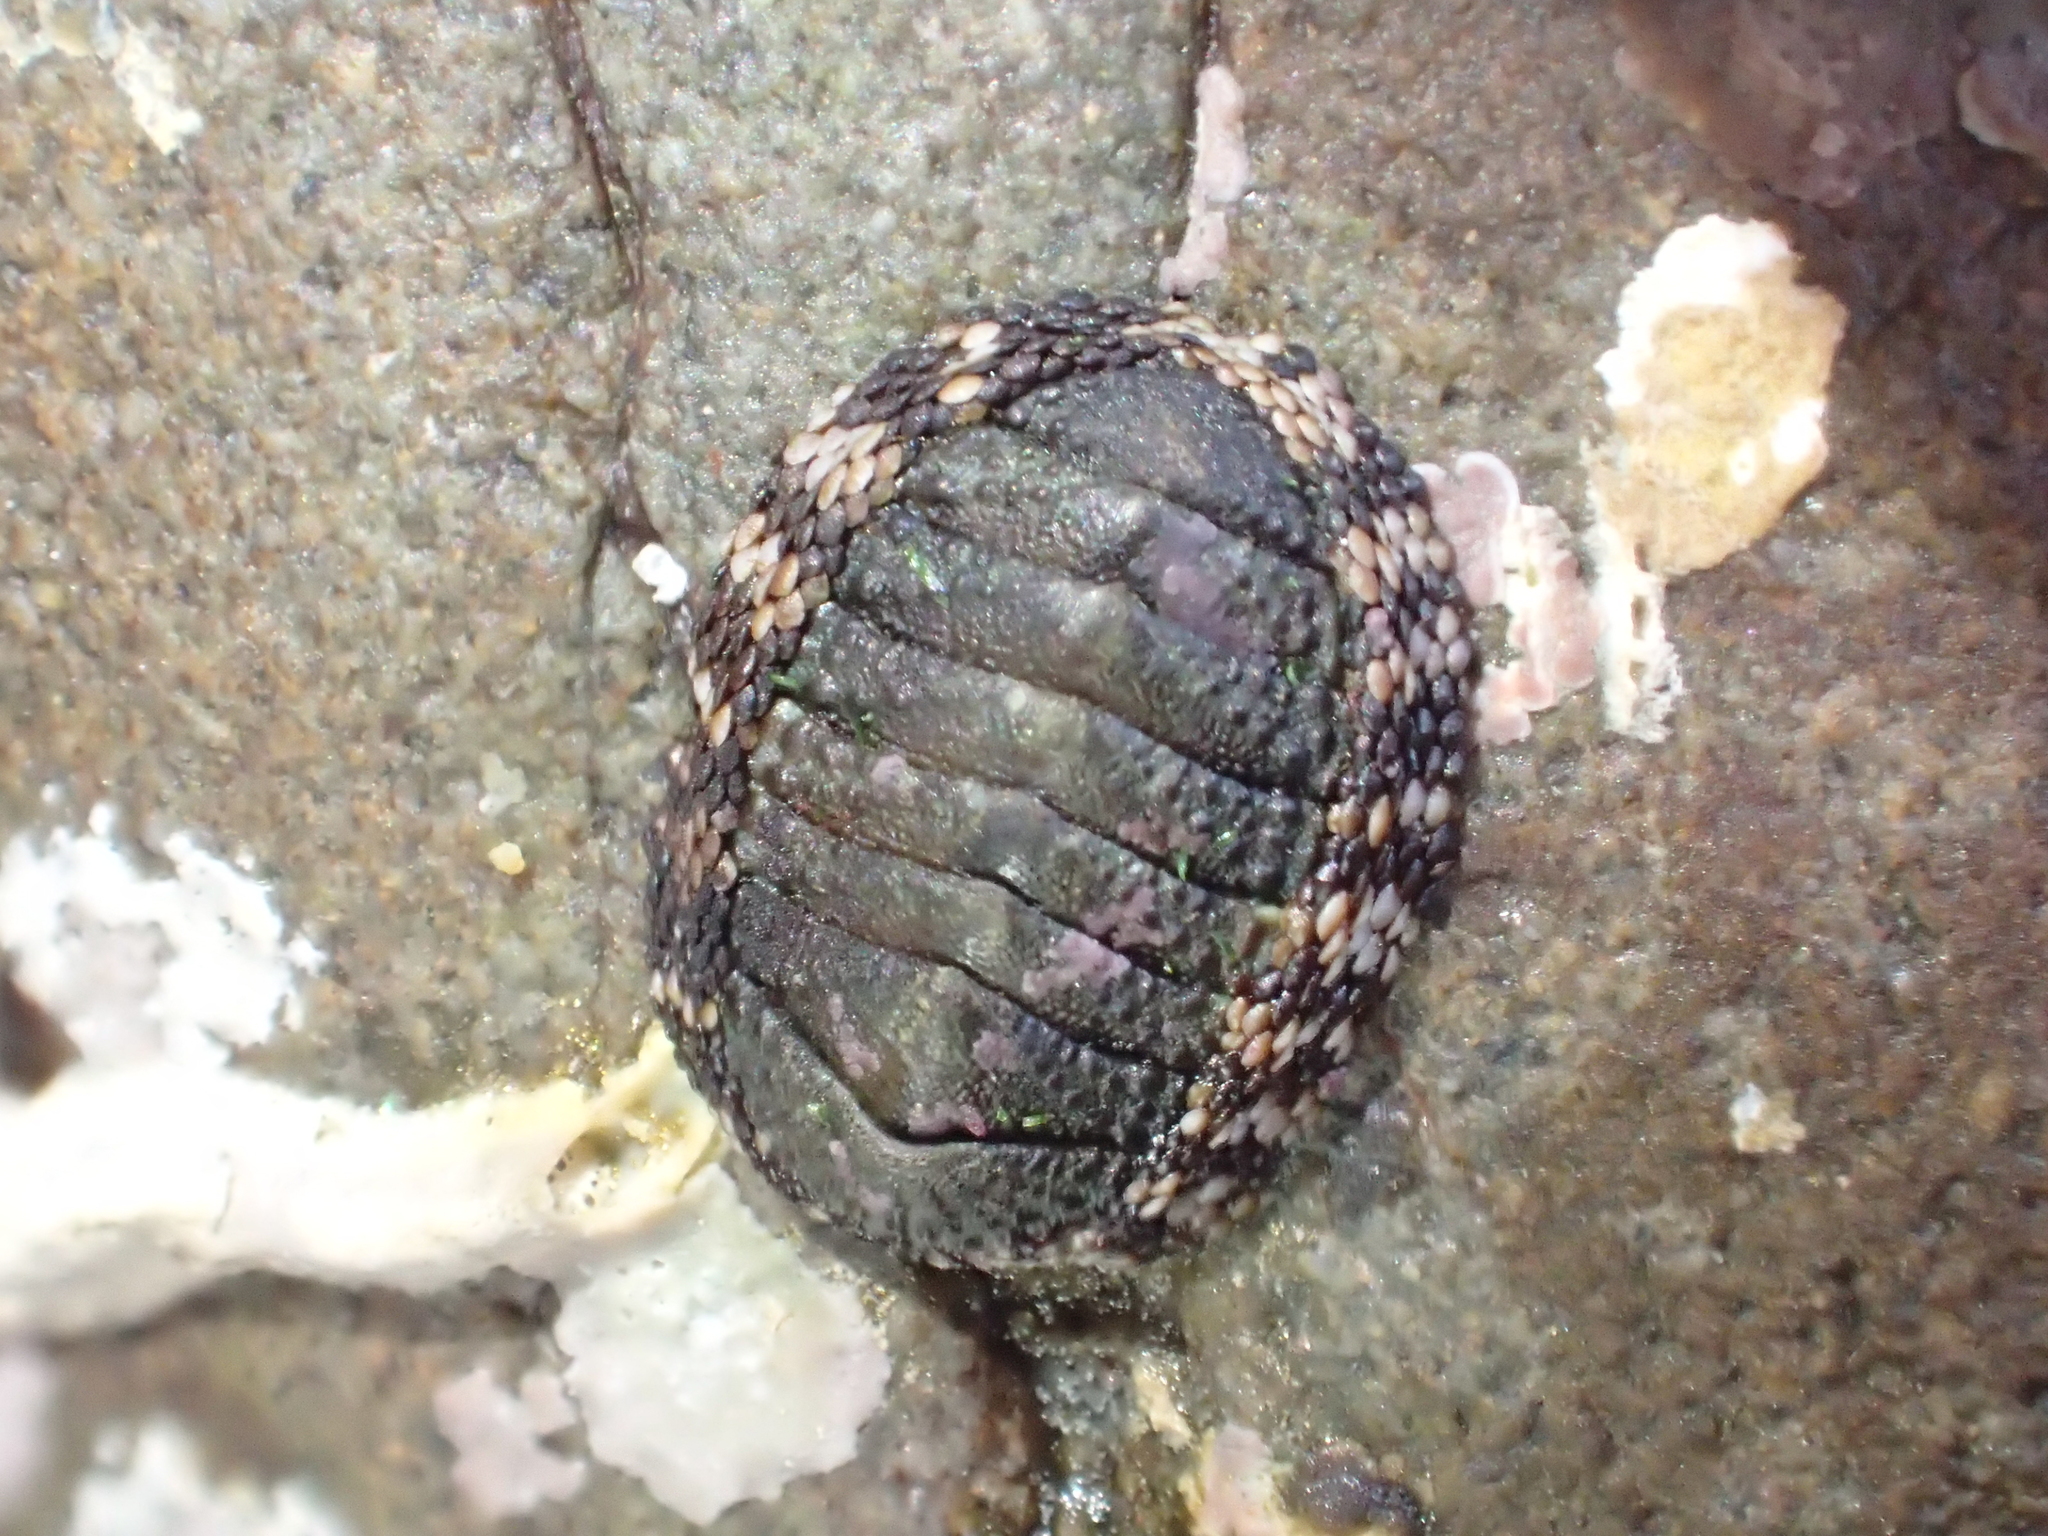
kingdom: Animalia
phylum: Mollusca
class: Polyplacophora
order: Chitonida
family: Chitonidae
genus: Sypharochiton
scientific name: Sypharochiton pelliserpentis
